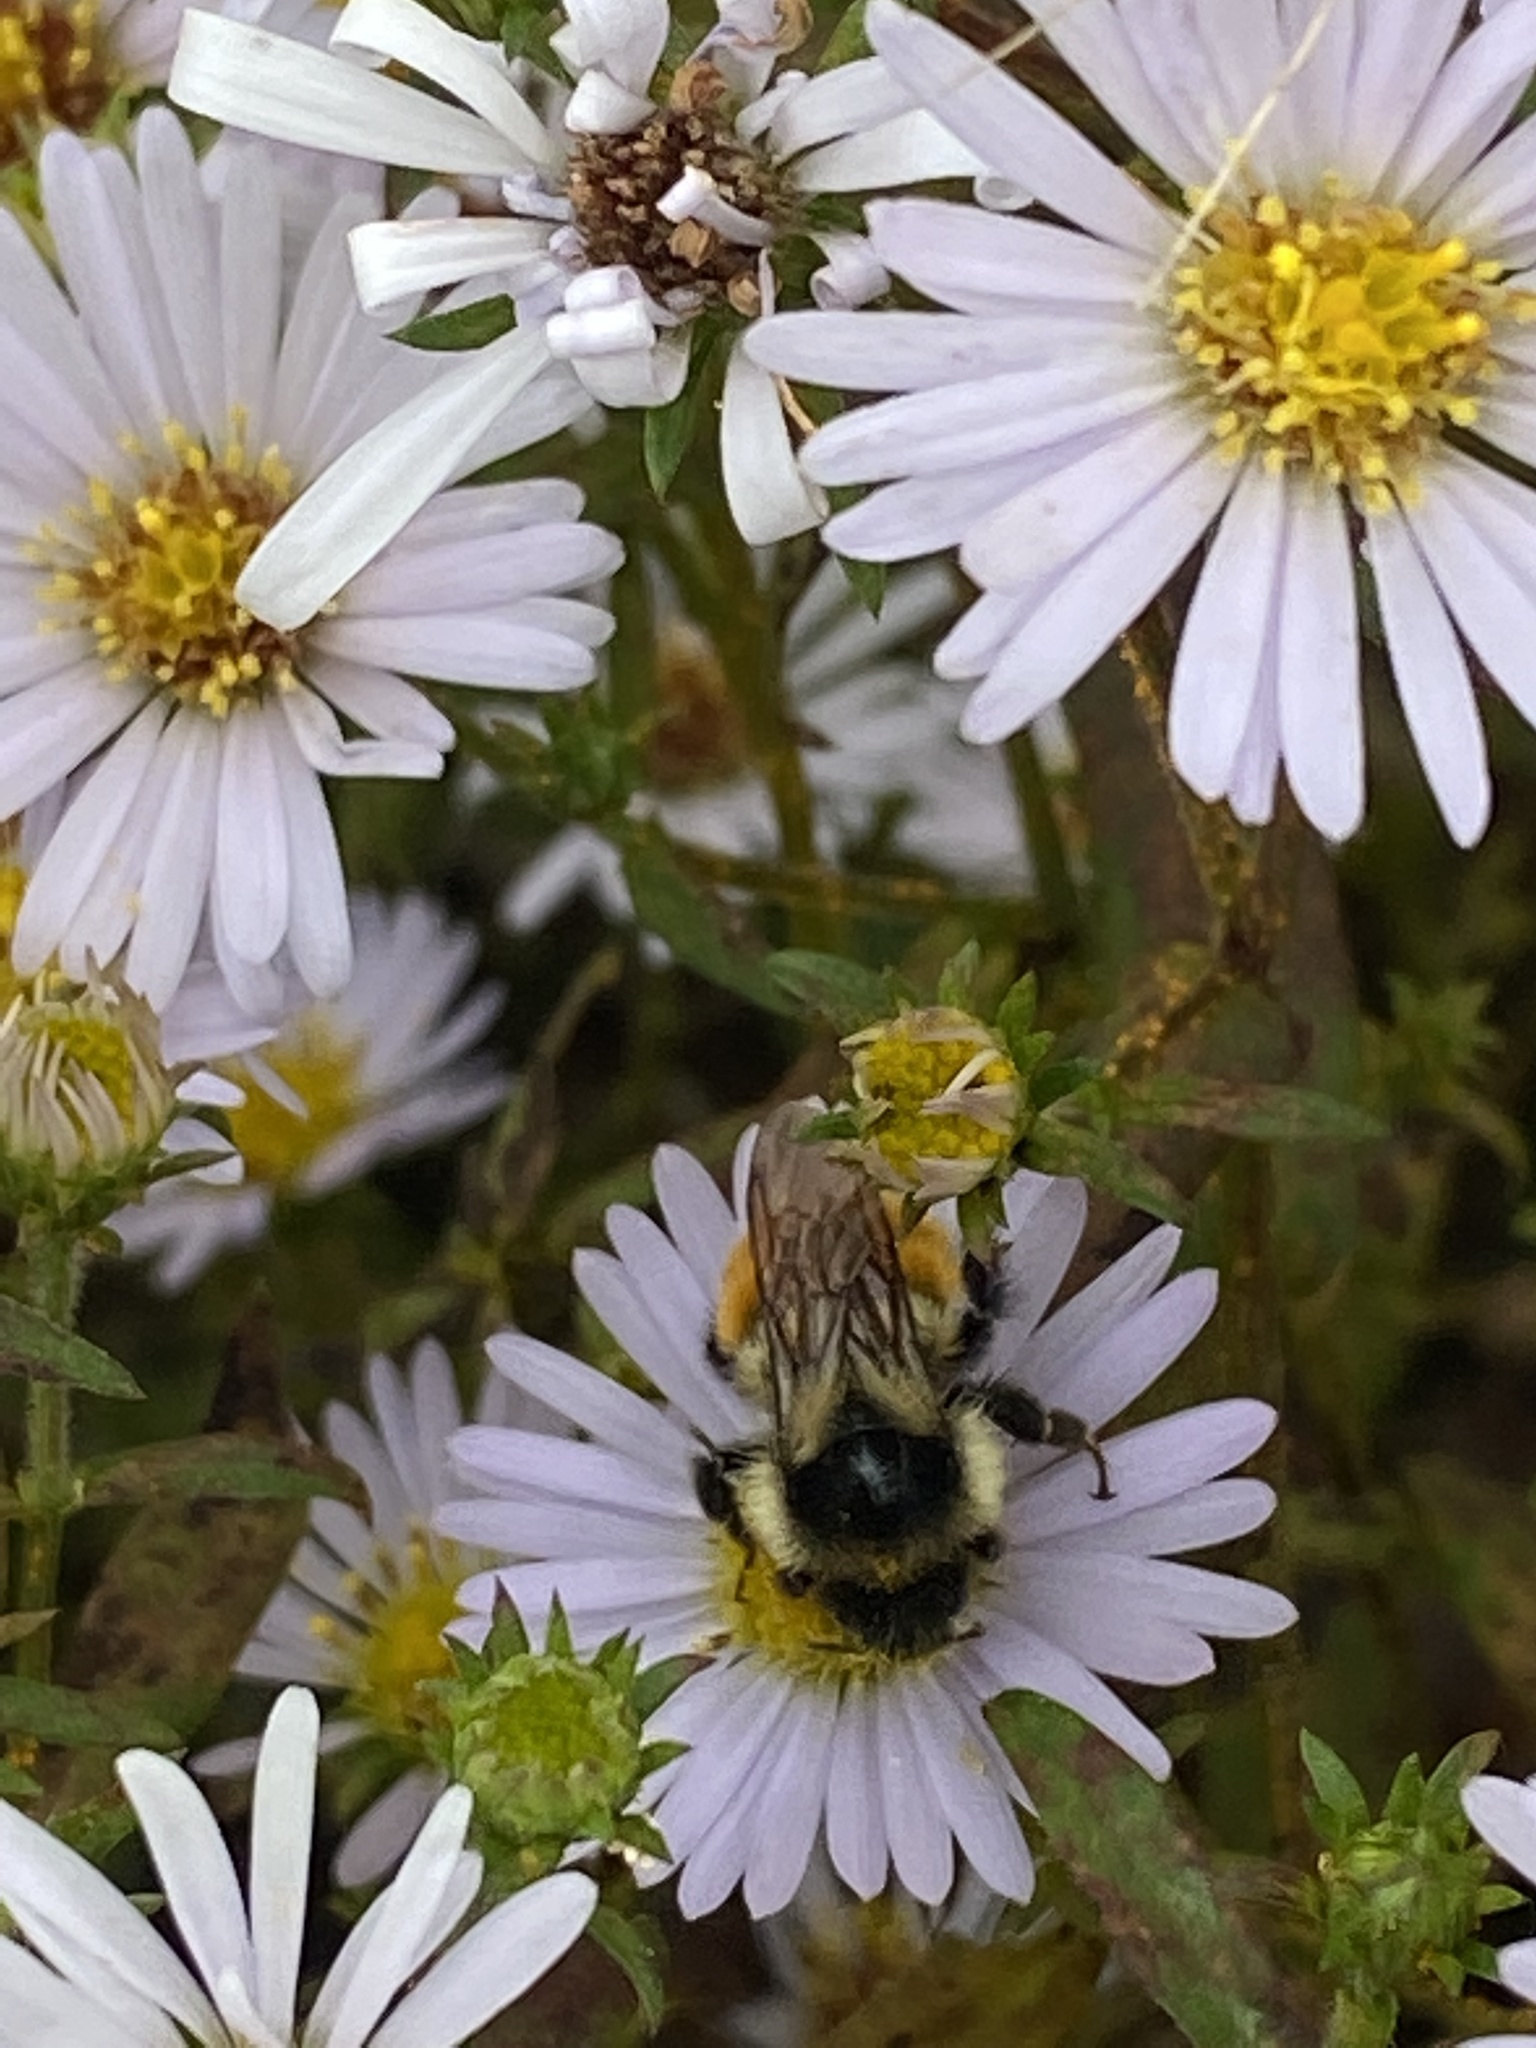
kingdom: Animalia
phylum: Arthropoda
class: Insecta
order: Hymenoptera
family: Apidae
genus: Bombus
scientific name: Bombus ternarius
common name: Tri-colored bumble bee
